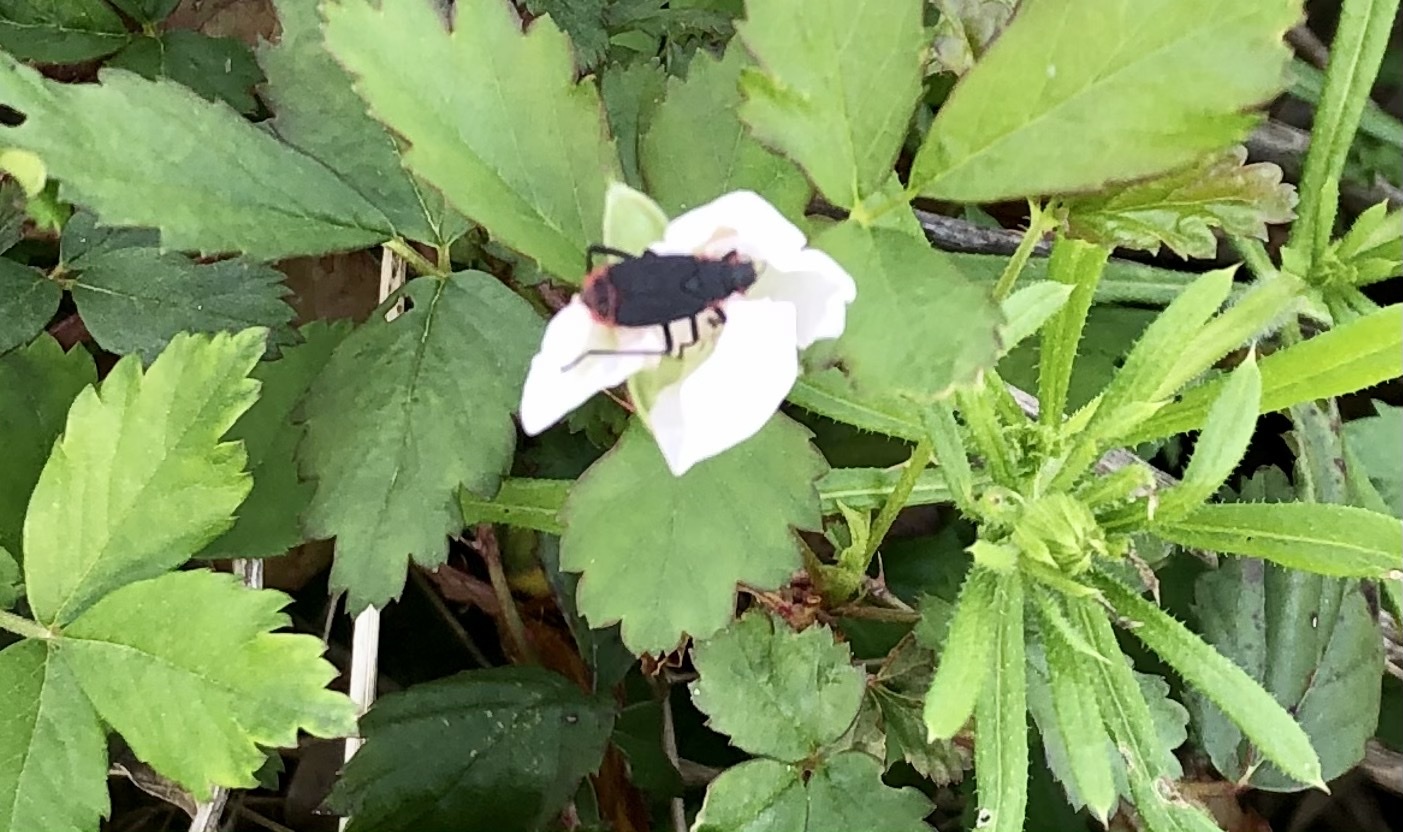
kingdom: Animalia
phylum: Arthropoda
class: Insecta
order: Hemiptera
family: Rhopalidae
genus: Jadera
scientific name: Jadera haematoloma
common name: Red-shouldered bug
